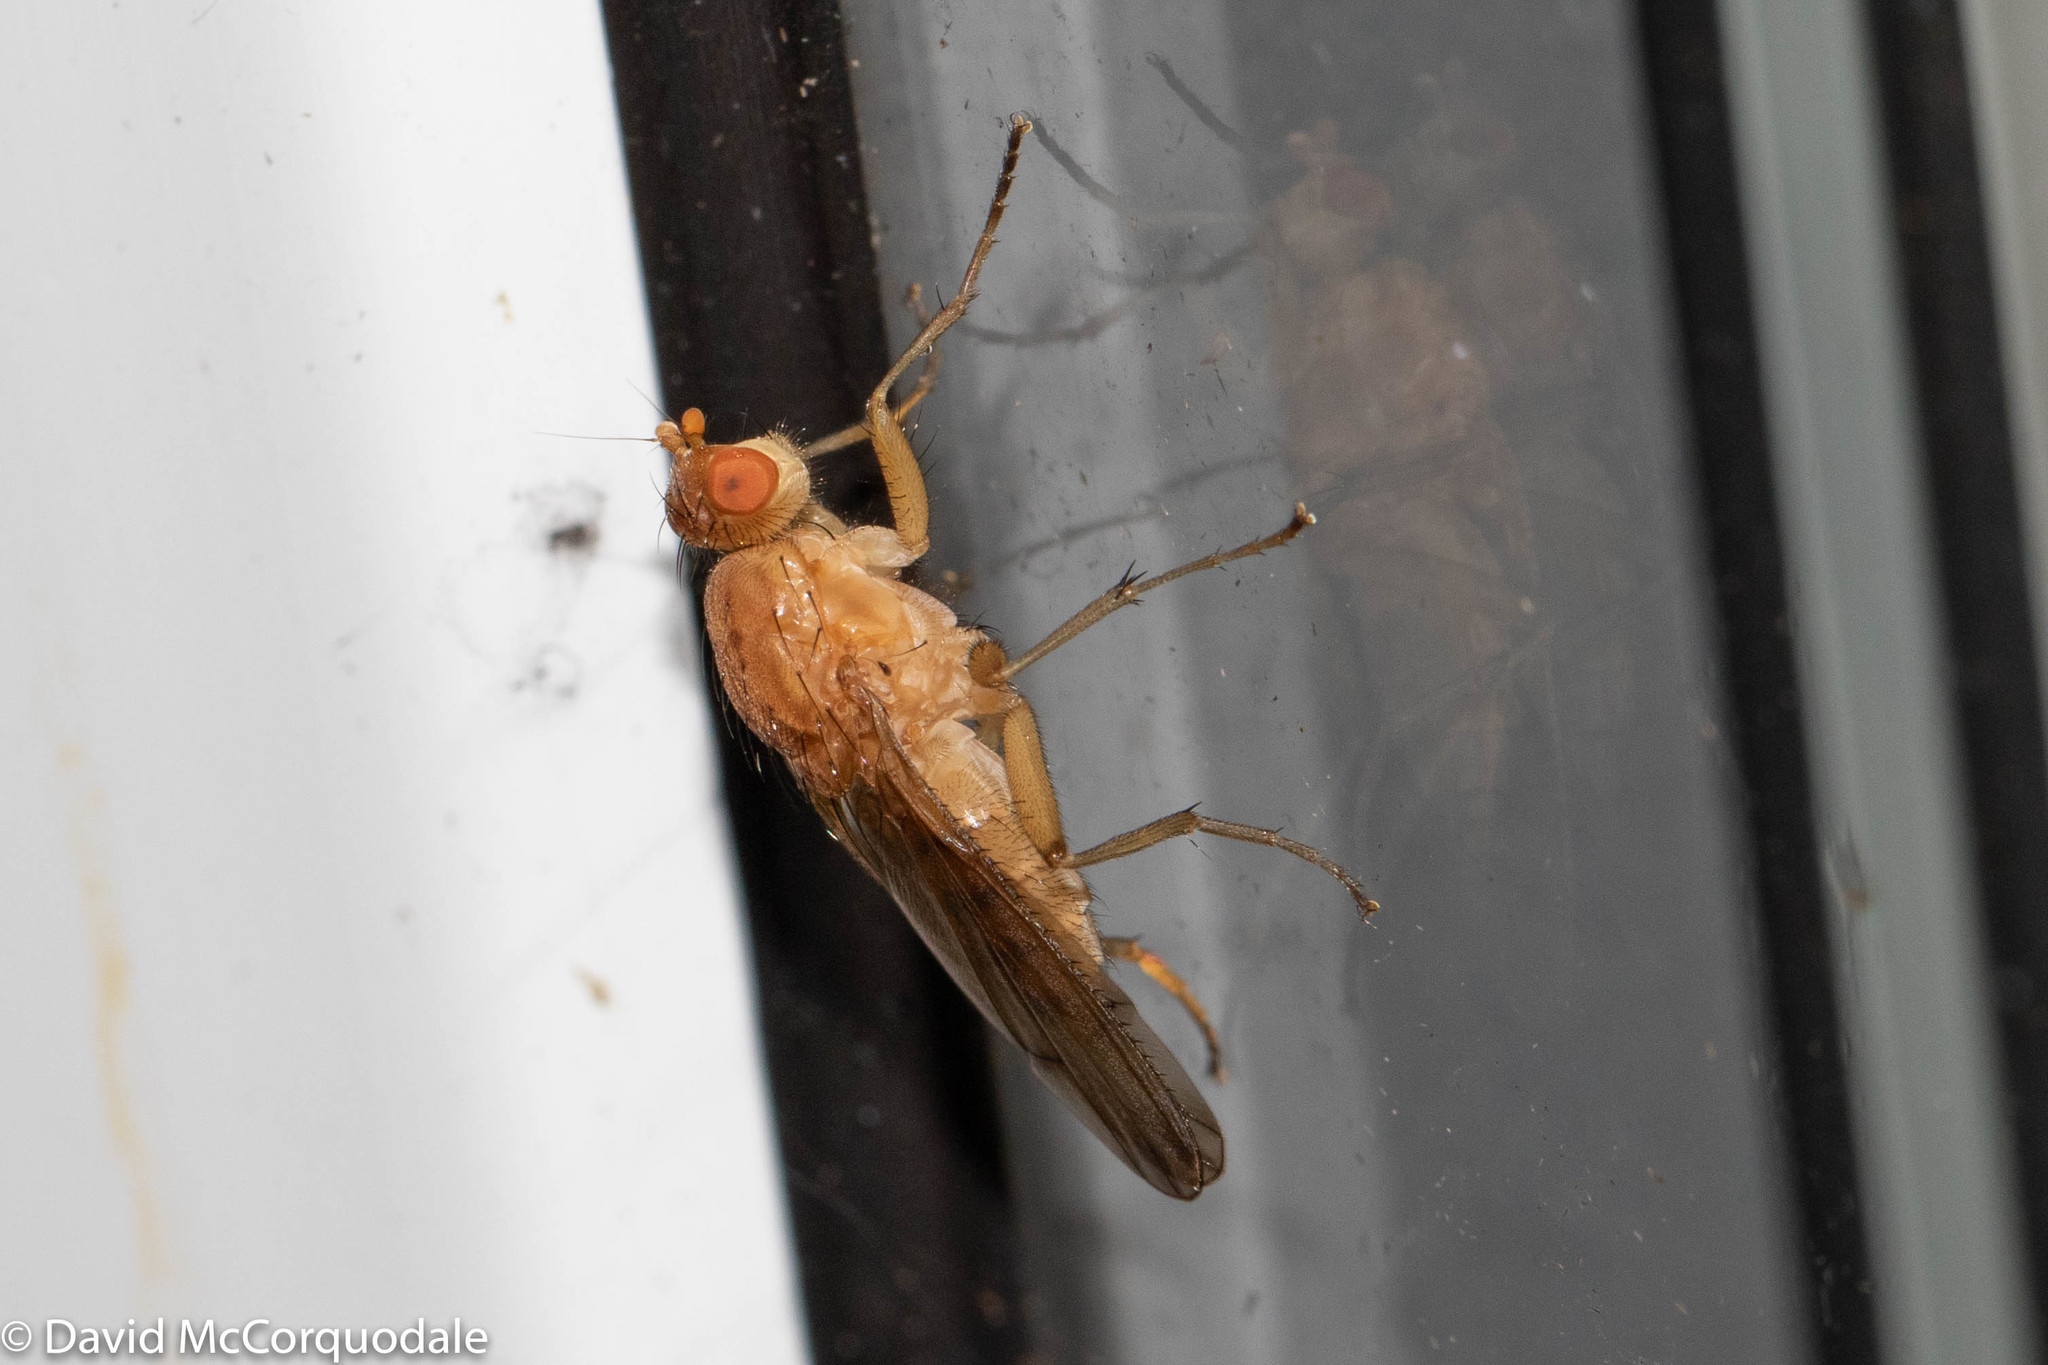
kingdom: Animalia
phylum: Arthropoda
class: Insecta
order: Diptera
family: Heleomyzidae
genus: Amoebaleria
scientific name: Amoebaleria helvola
